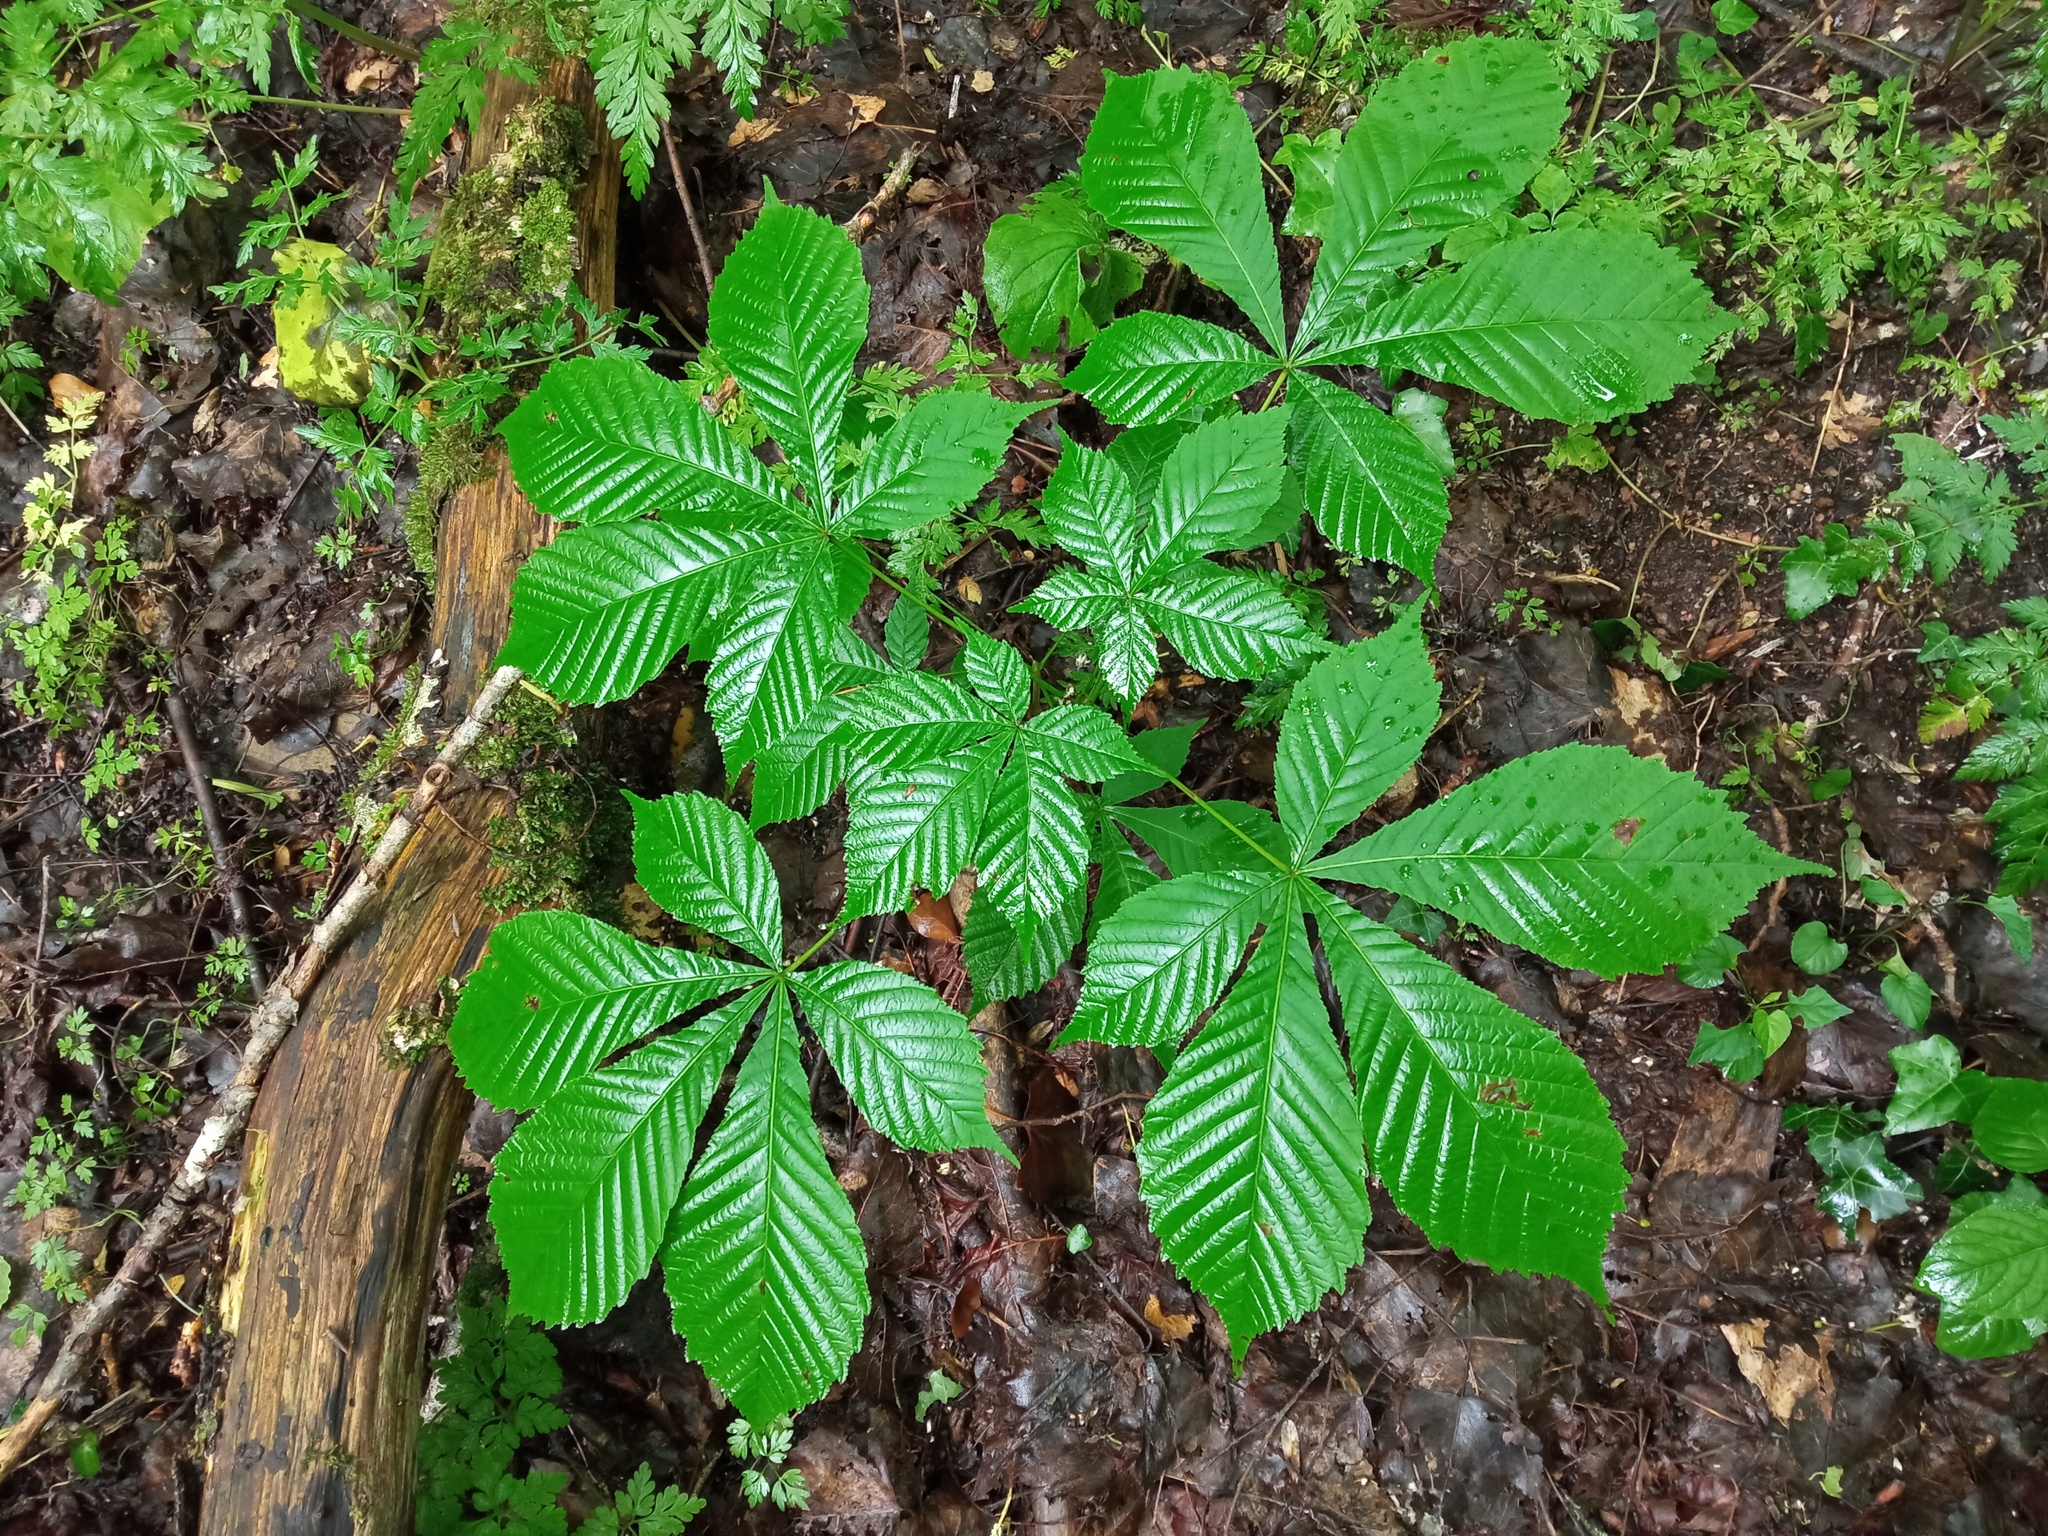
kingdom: Plantae
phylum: Tracheophyta
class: Magnoliopsida
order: Sapindales
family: Sapindaceae
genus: Aesculus
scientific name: Aesculus hippocastanum
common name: Horse-chestnut
